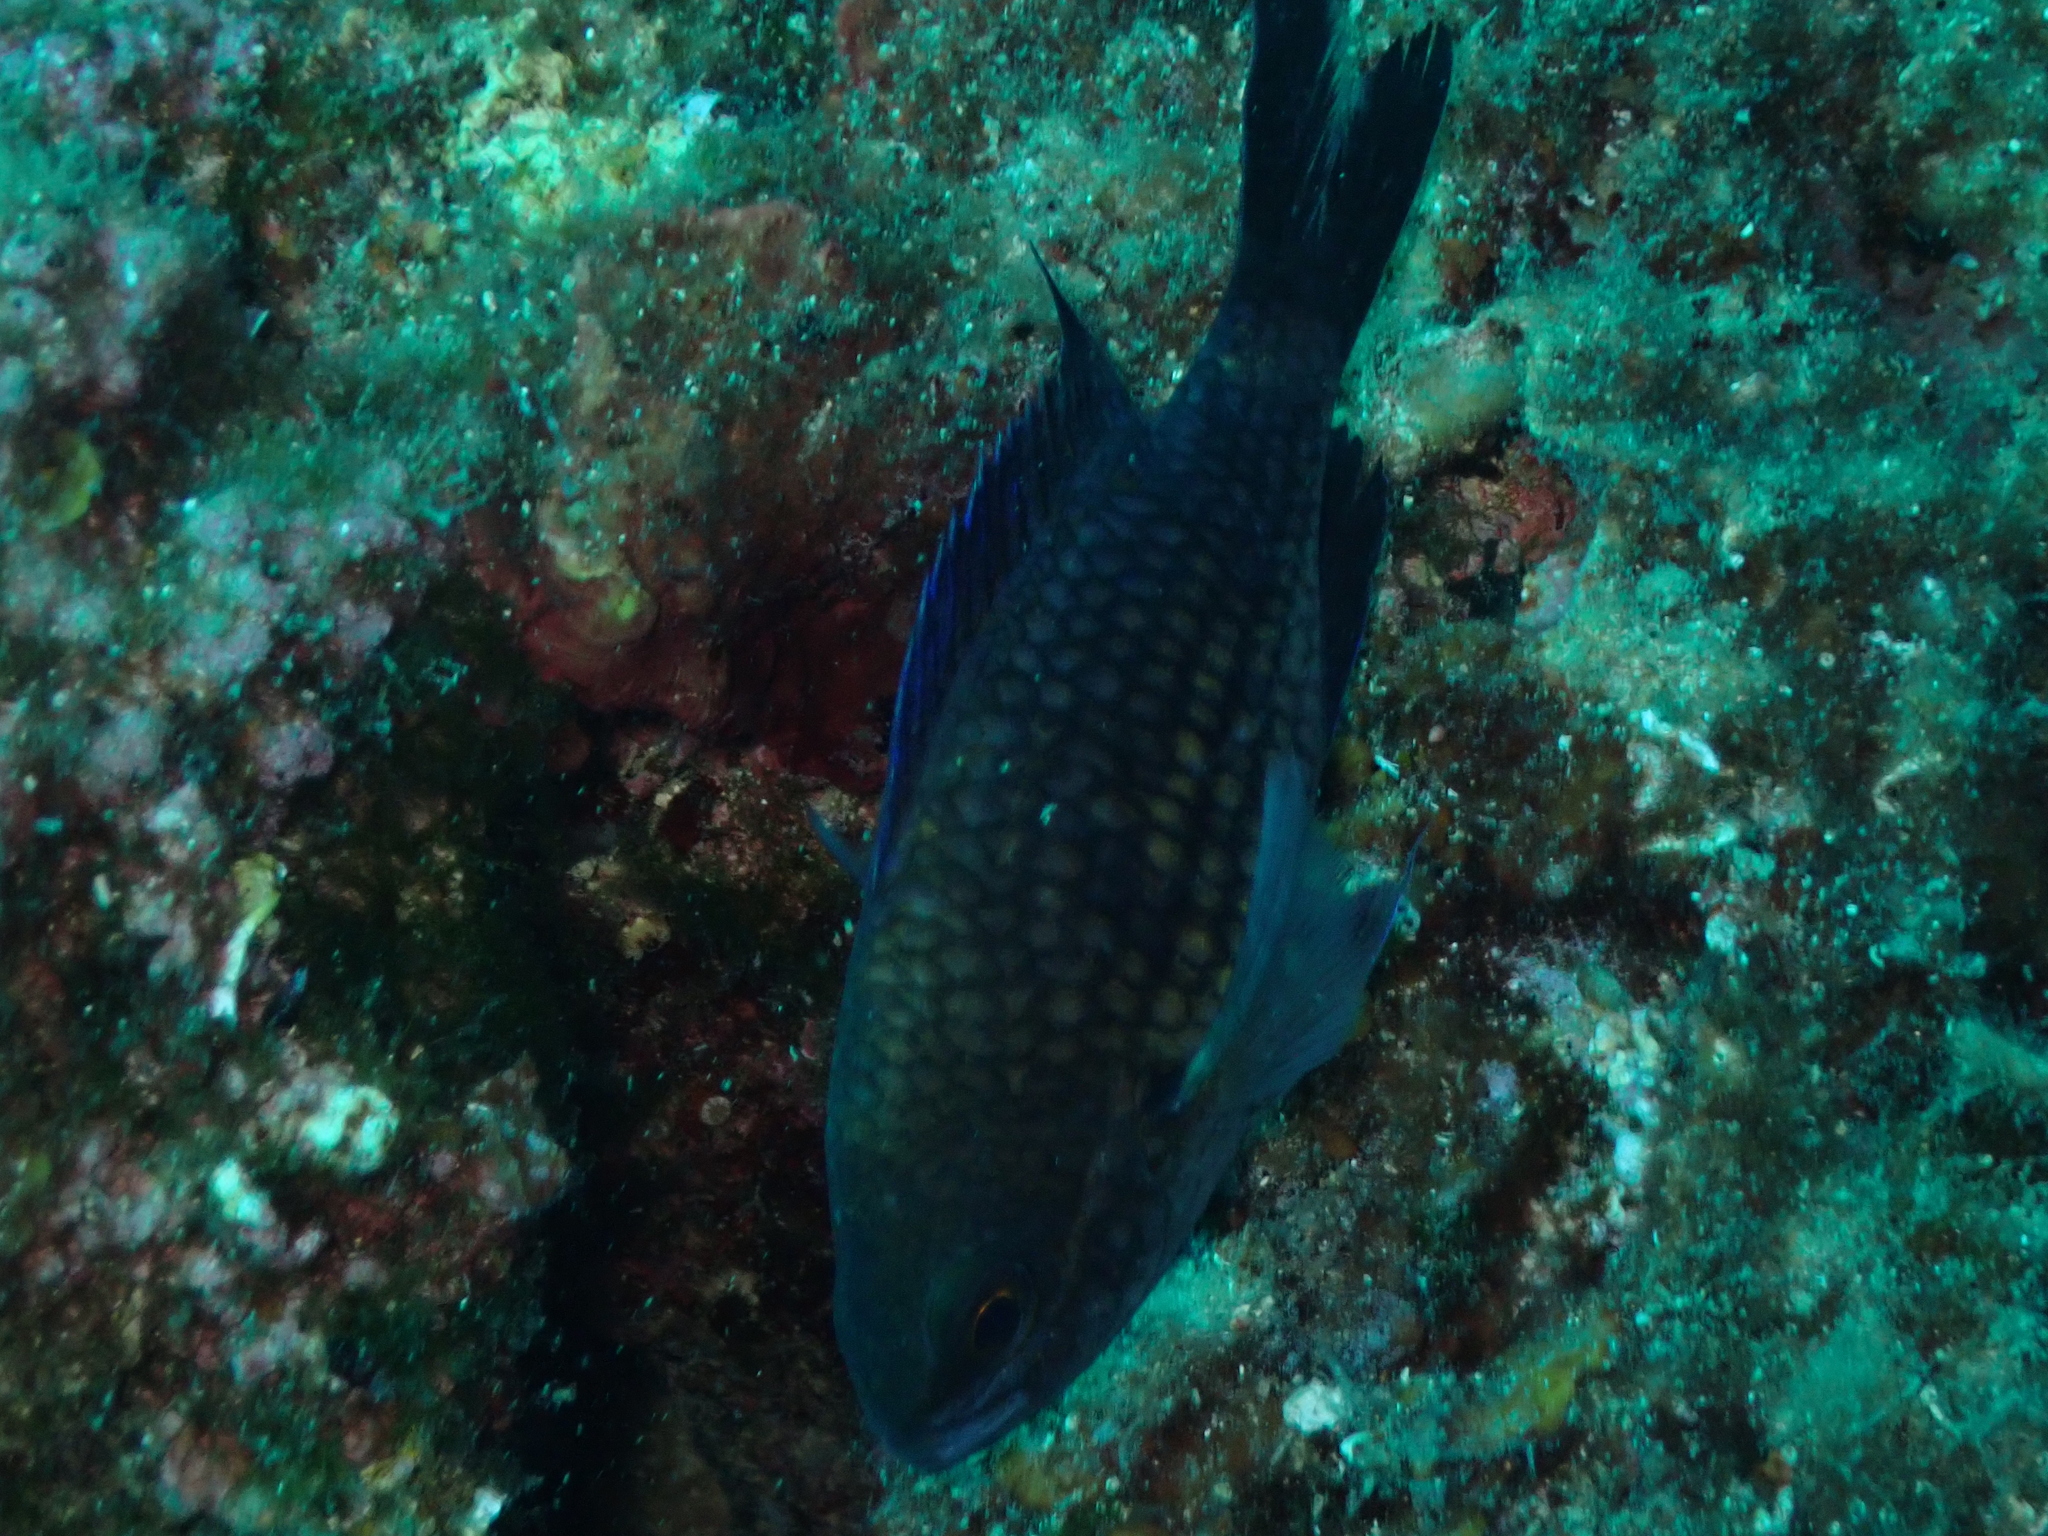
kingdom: Animalia
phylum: Chordata
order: Perciformes
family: Pomacentridae
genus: Chromis
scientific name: Chromis chromis
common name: Damselfish
